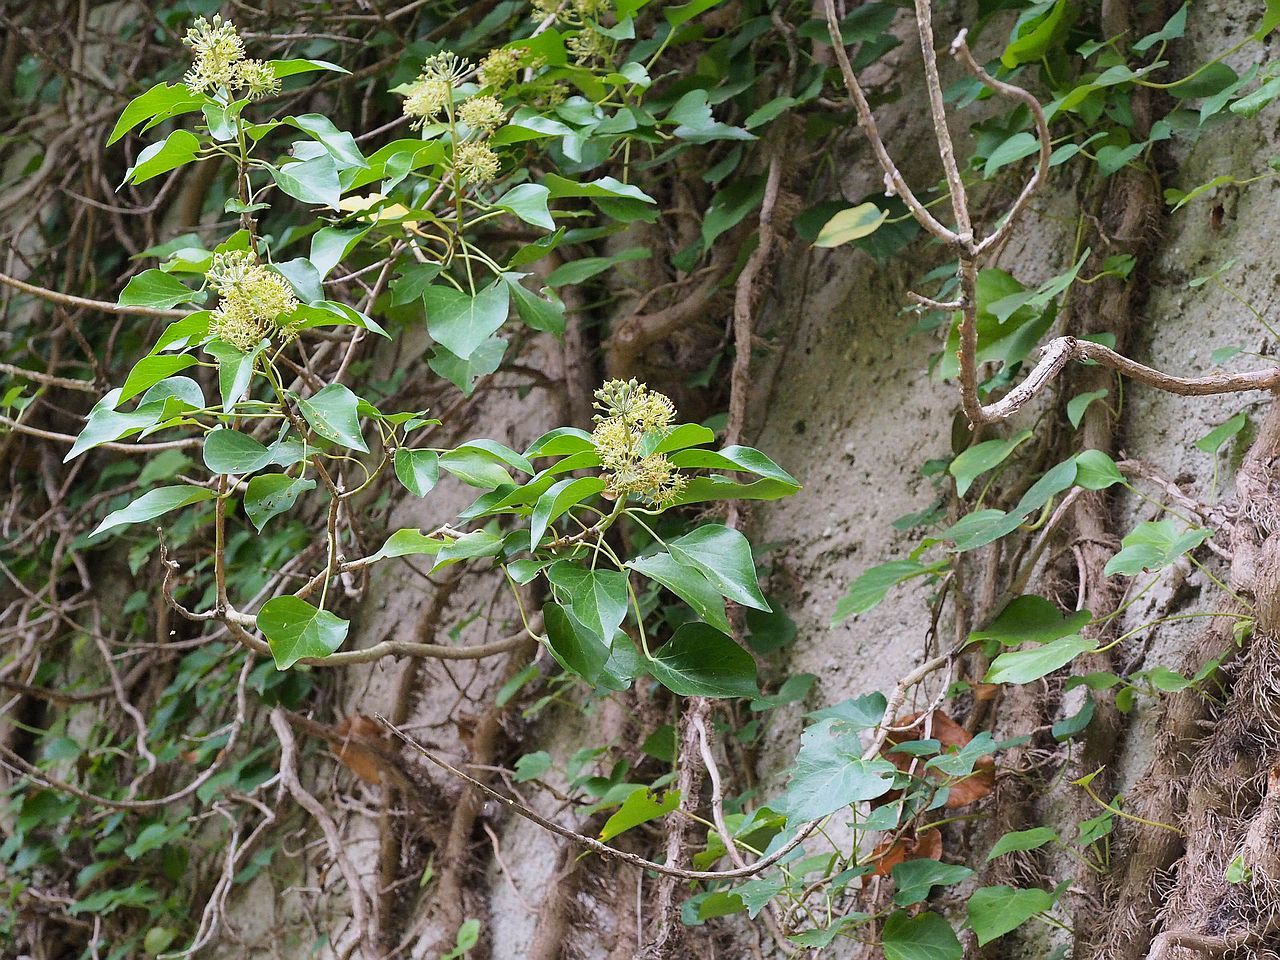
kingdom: Plantae
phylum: Tracheophyta
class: Magnoliopsida
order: Apiales
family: Araliaceae
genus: Hedera
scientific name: Hedera helix
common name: Ivy
